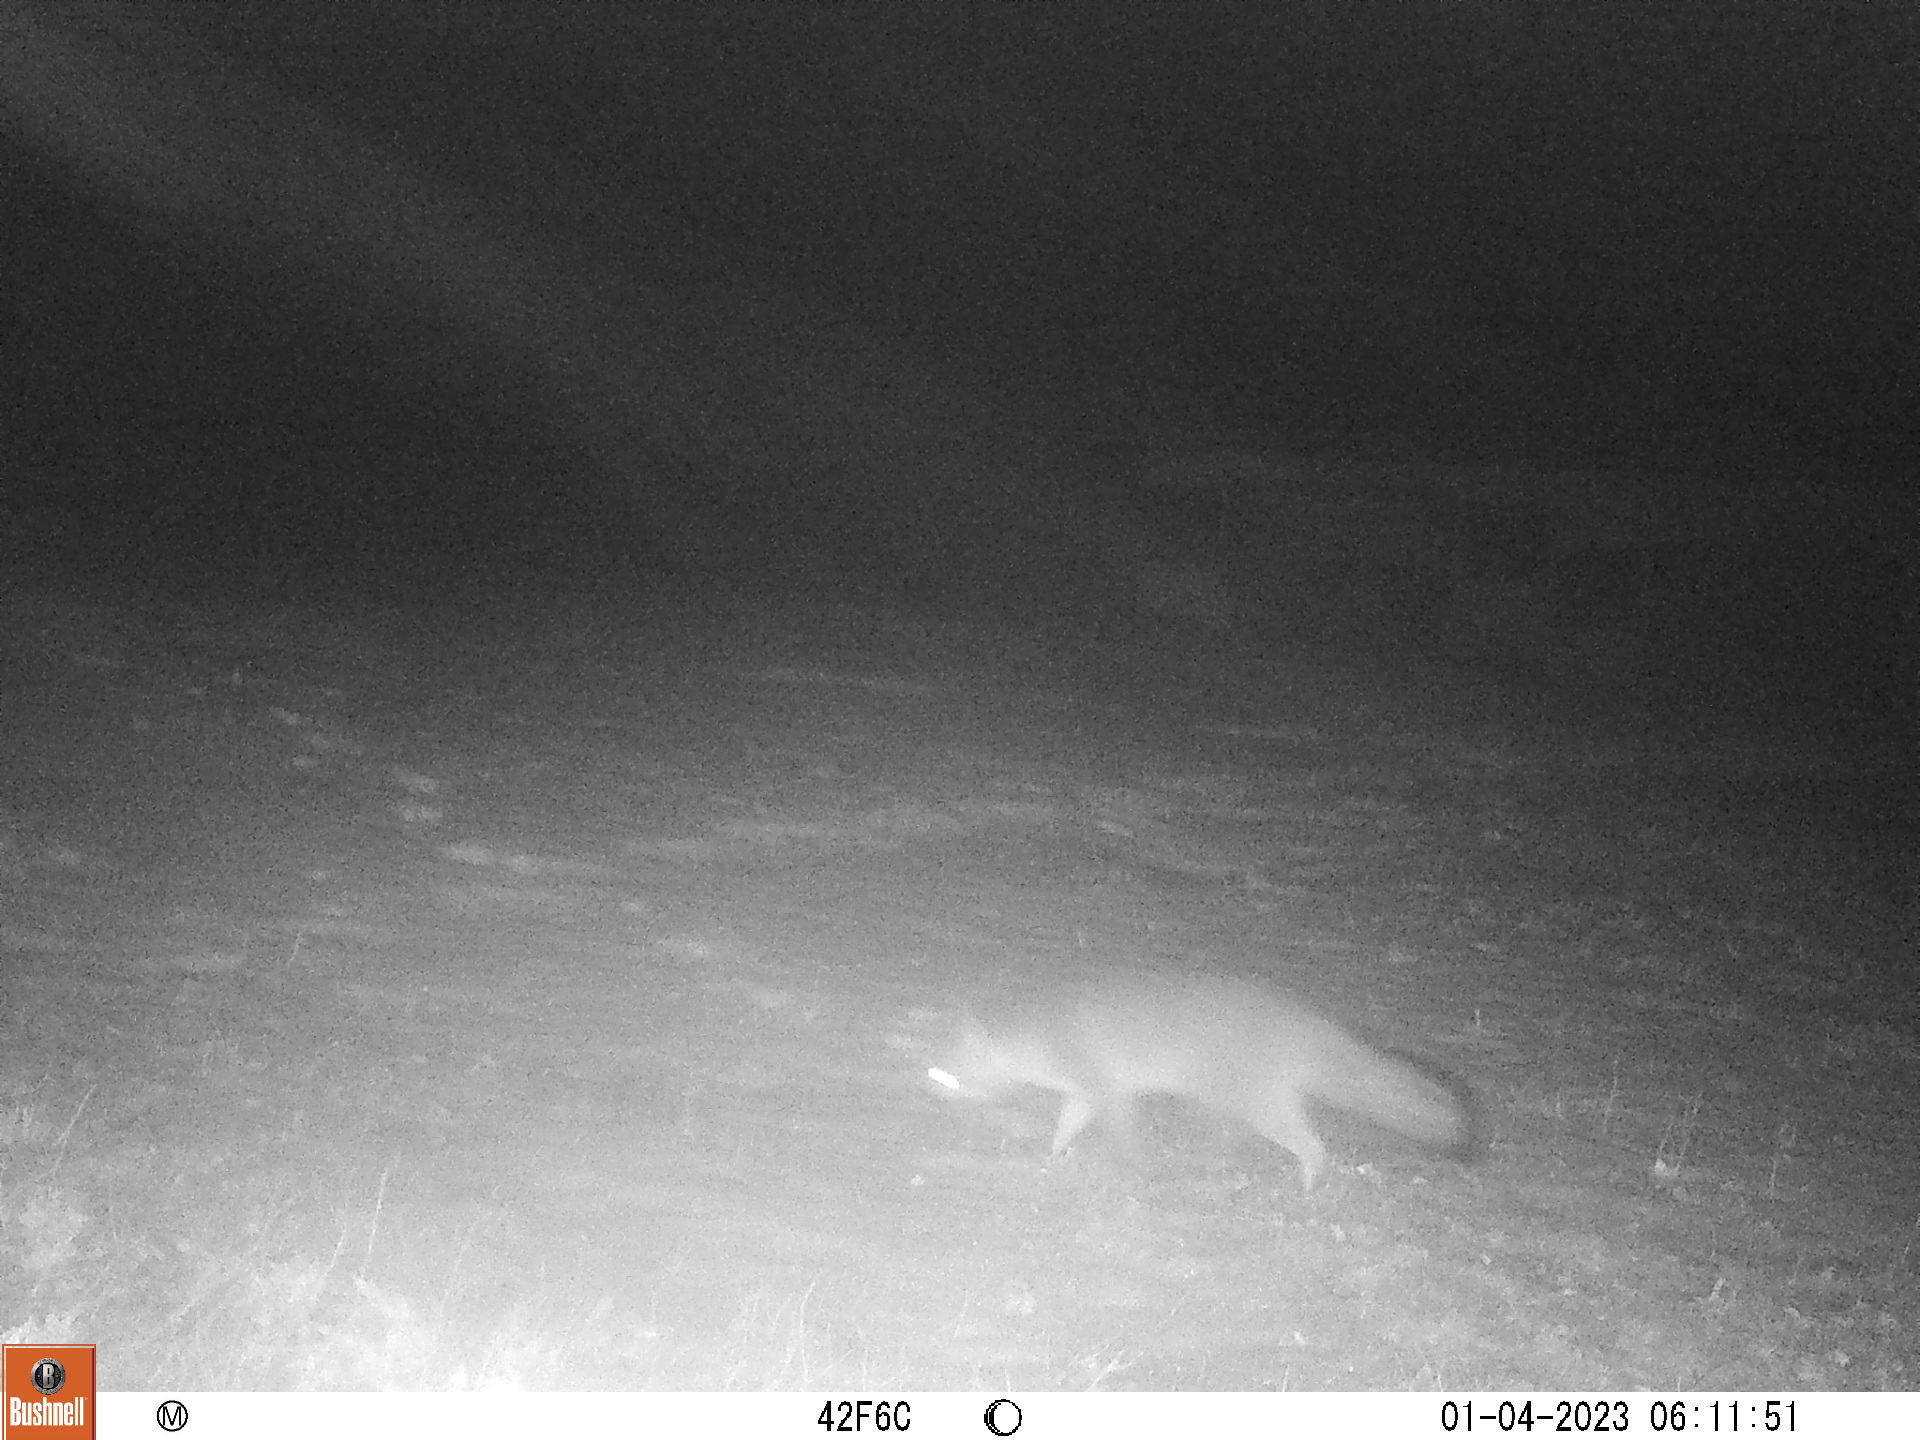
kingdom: Animalia
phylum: Chordata
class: Mammalia
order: Carnivora
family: Canidae
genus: Urocyon
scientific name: Urocyon cinereoargenteus
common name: Gray fox
